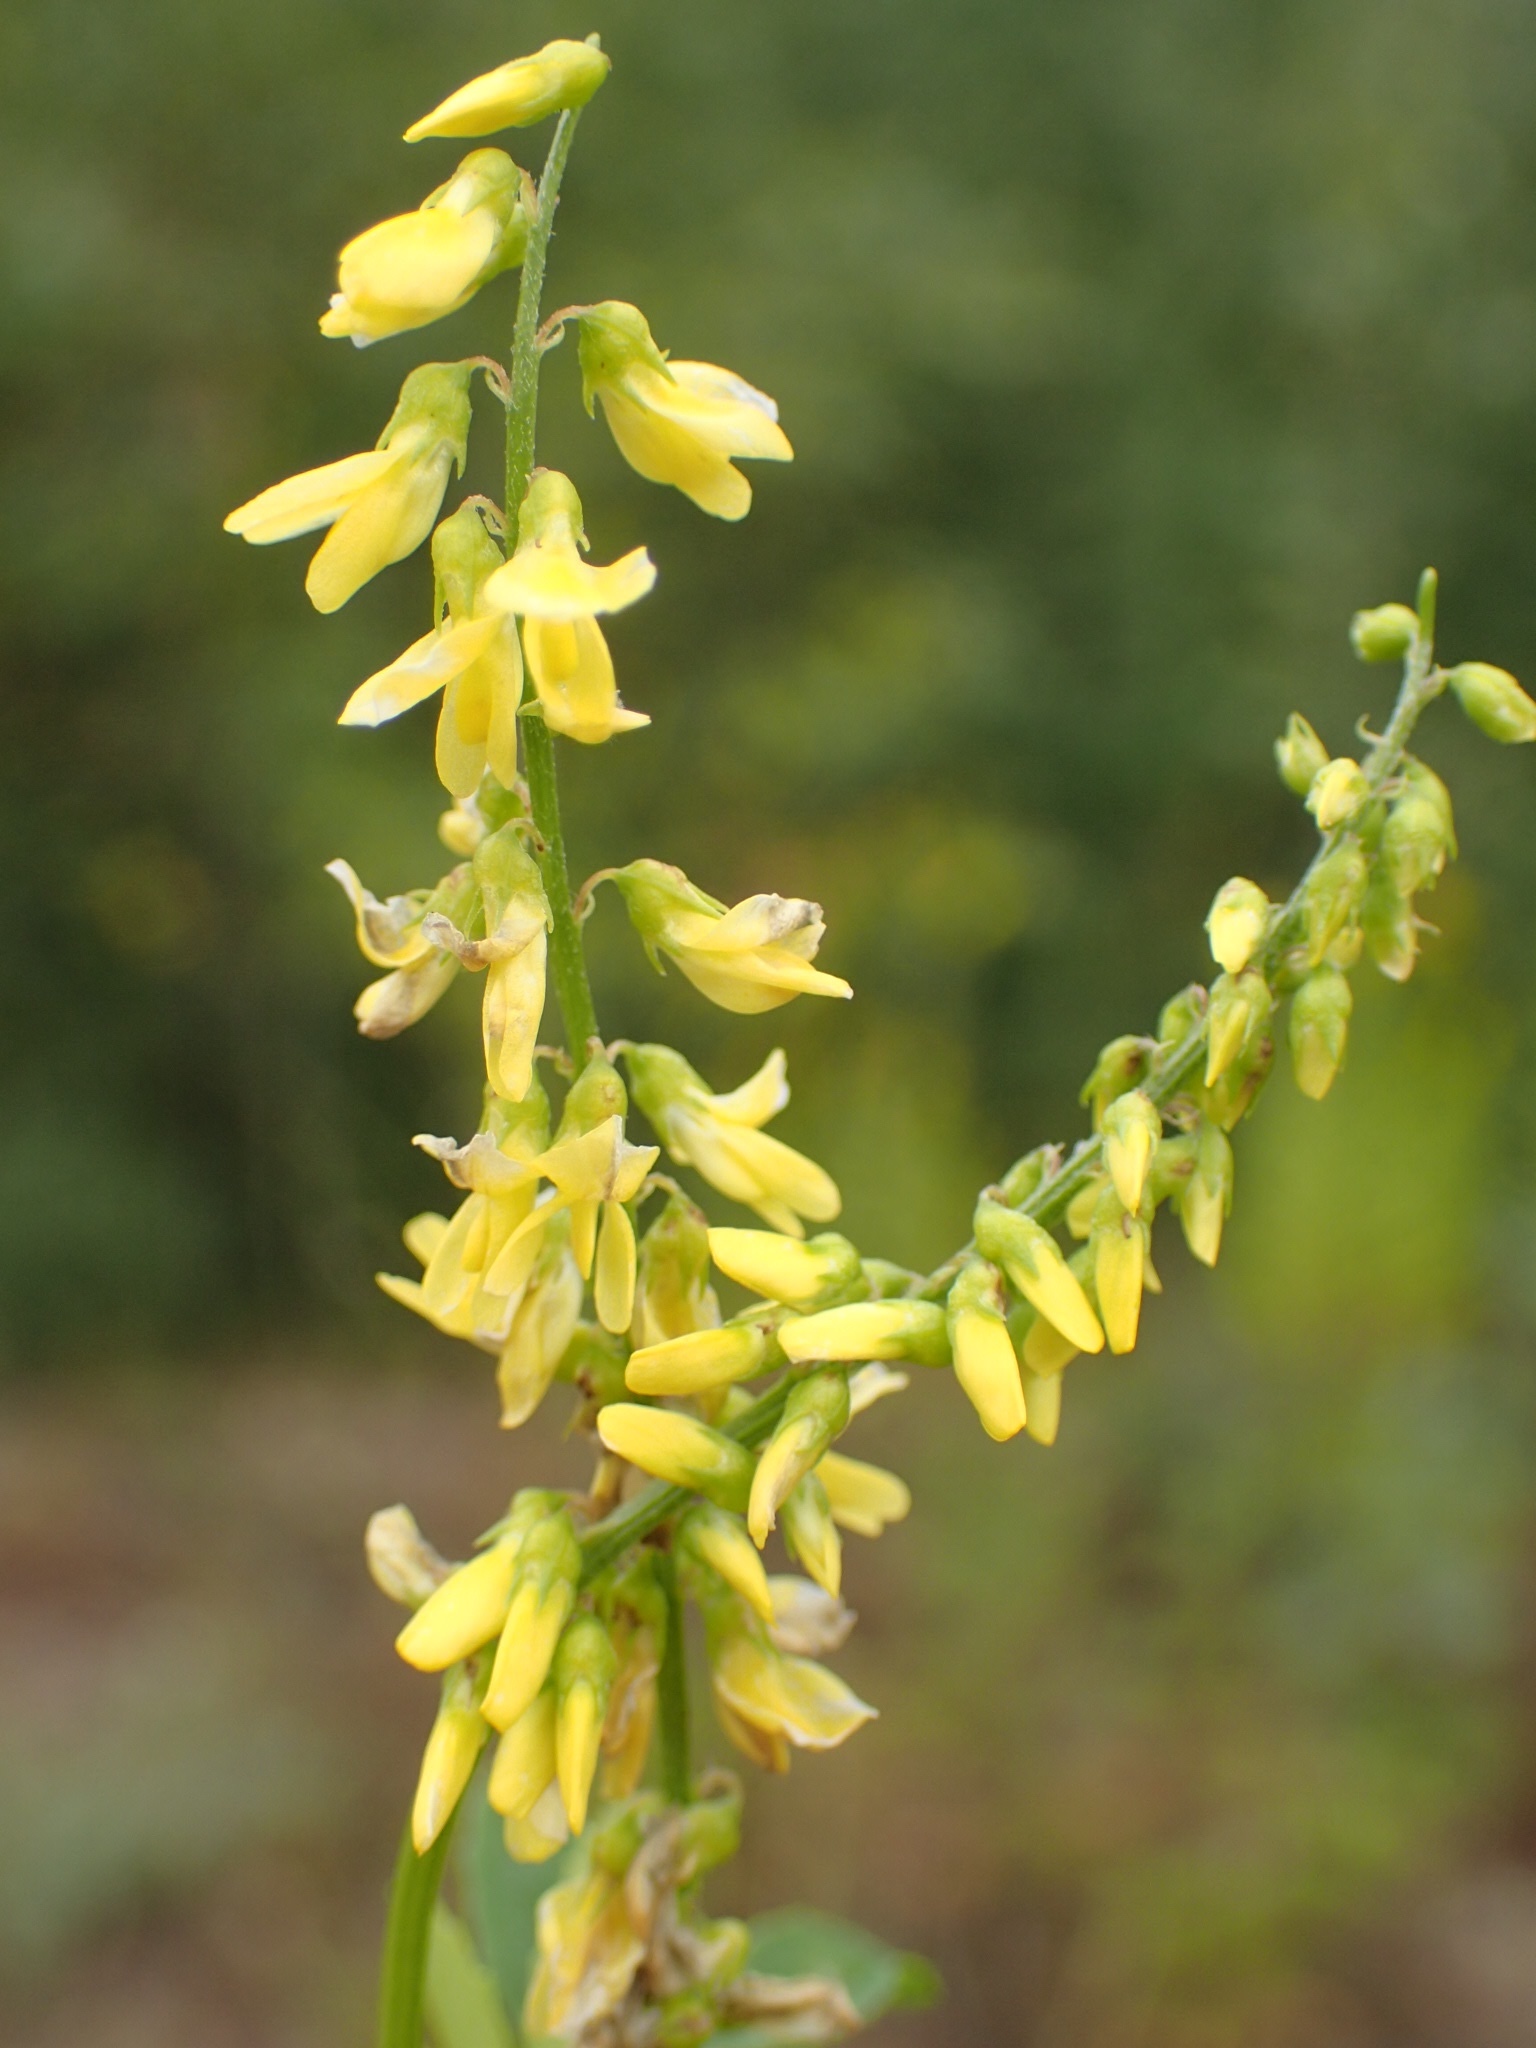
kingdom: Plantae
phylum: Tracheophyta
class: Magnoliopsida
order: Fabales
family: Fabaceae
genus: Melilotus
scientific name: Melilotus officinalis
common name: Sweetclover
